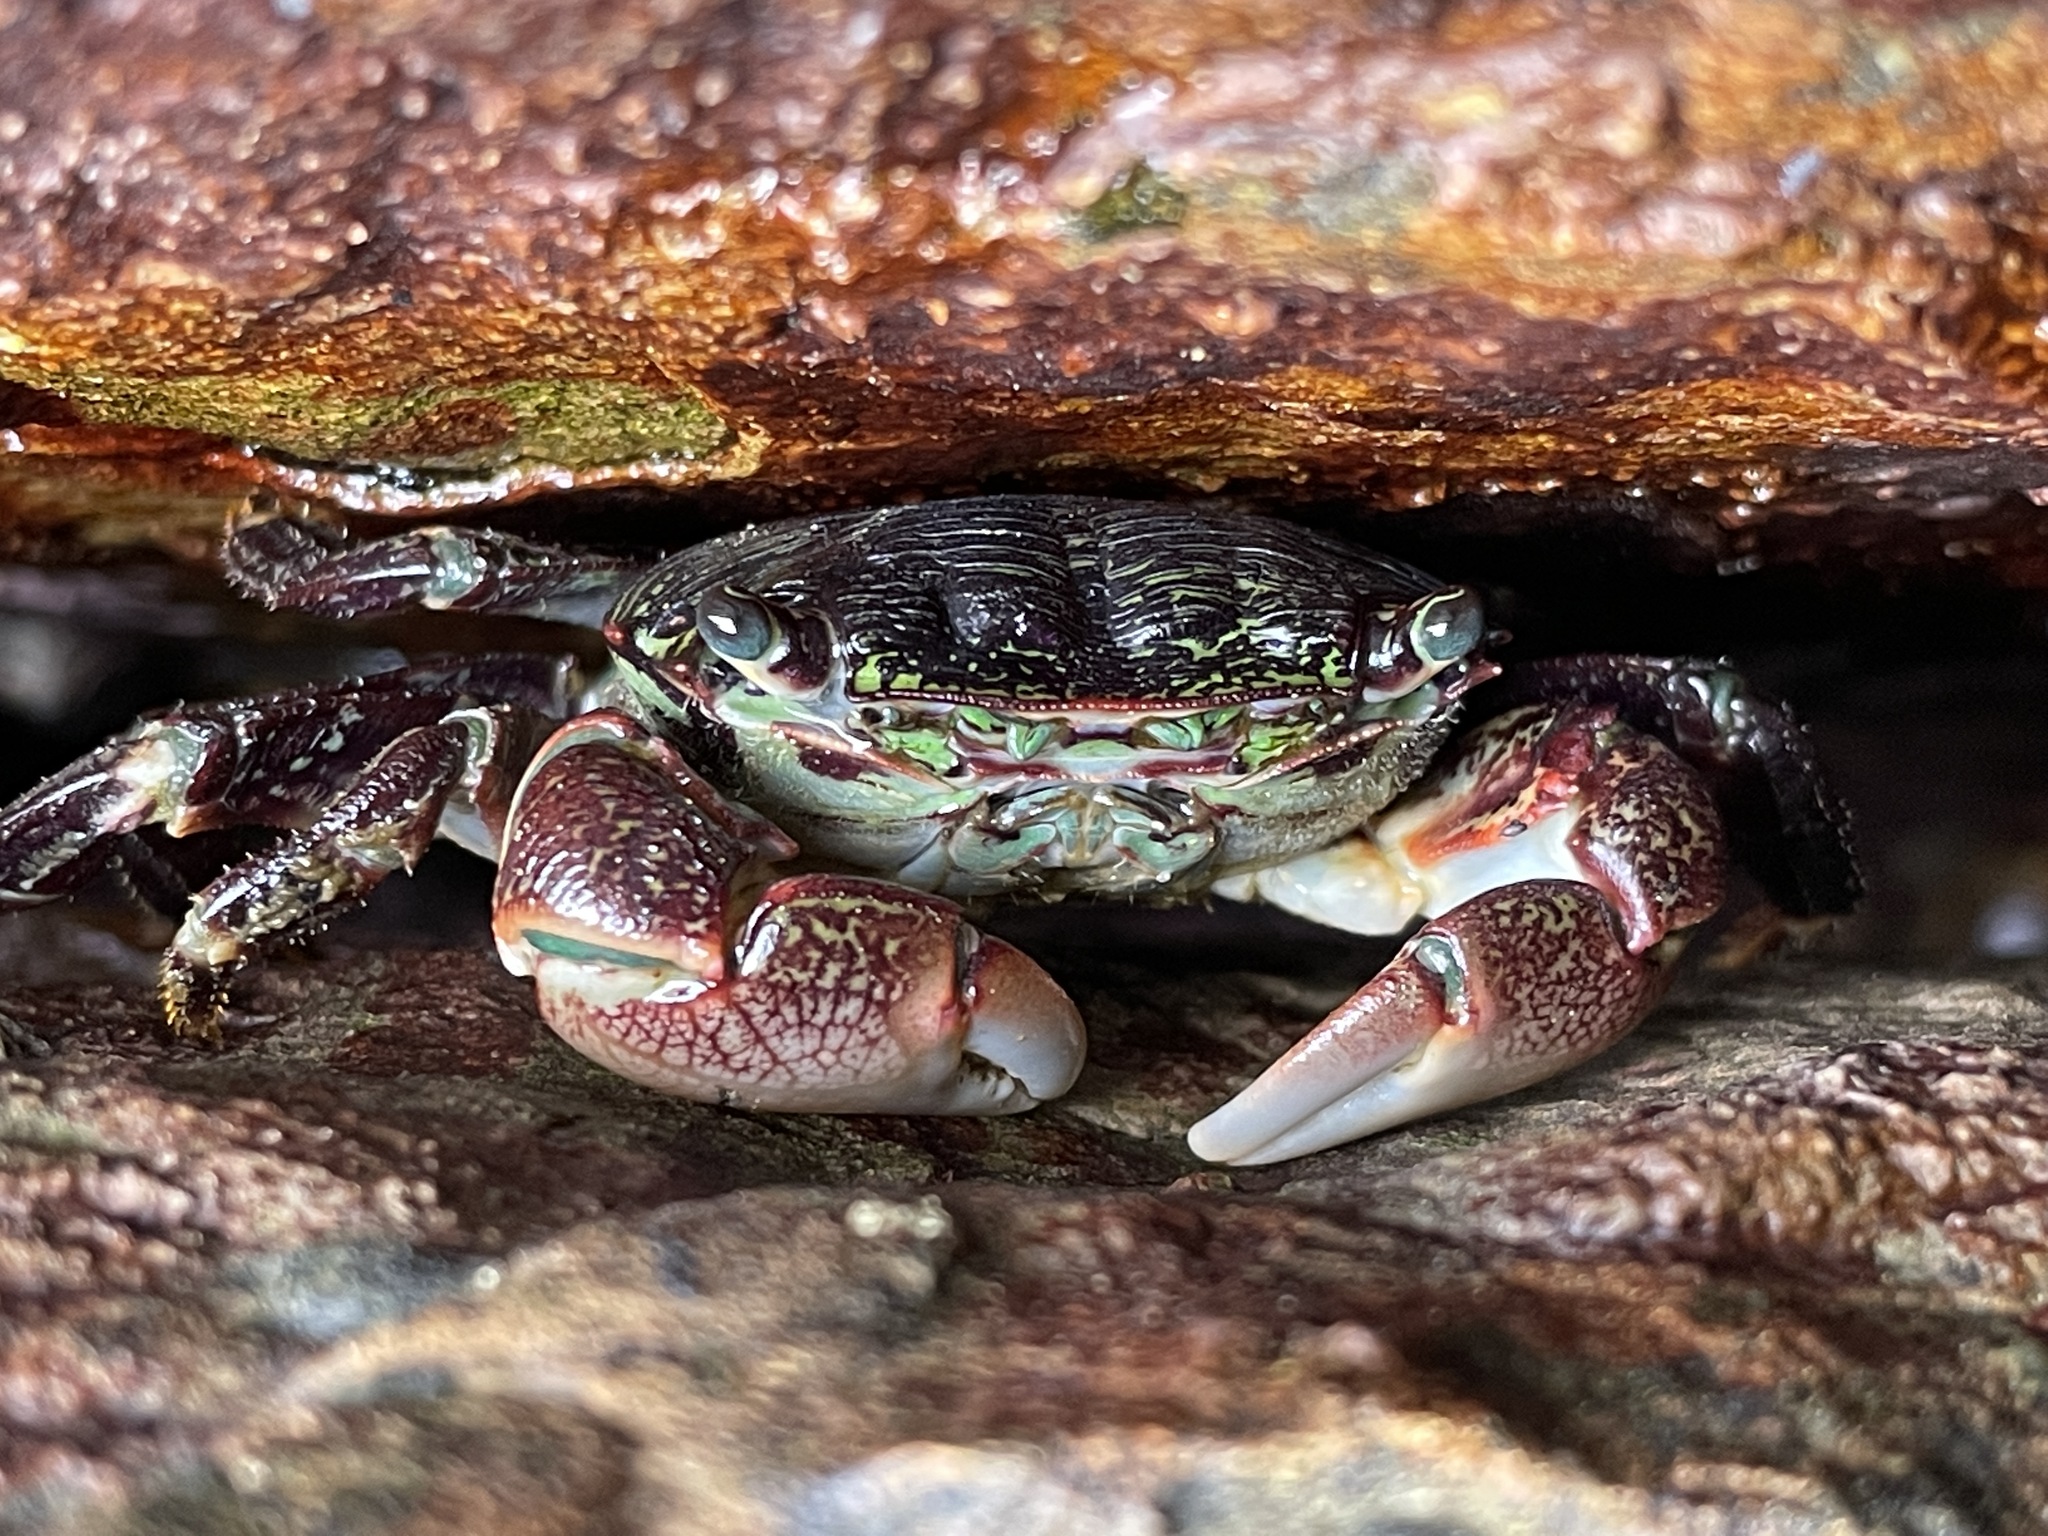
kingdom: Animalia
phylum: Arthropoda
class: Malacostraca
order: Decapoda
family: Grapsidae
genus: Pachygrapsus
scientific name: Pachygrapsus crassipes
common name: Striped shore crab
